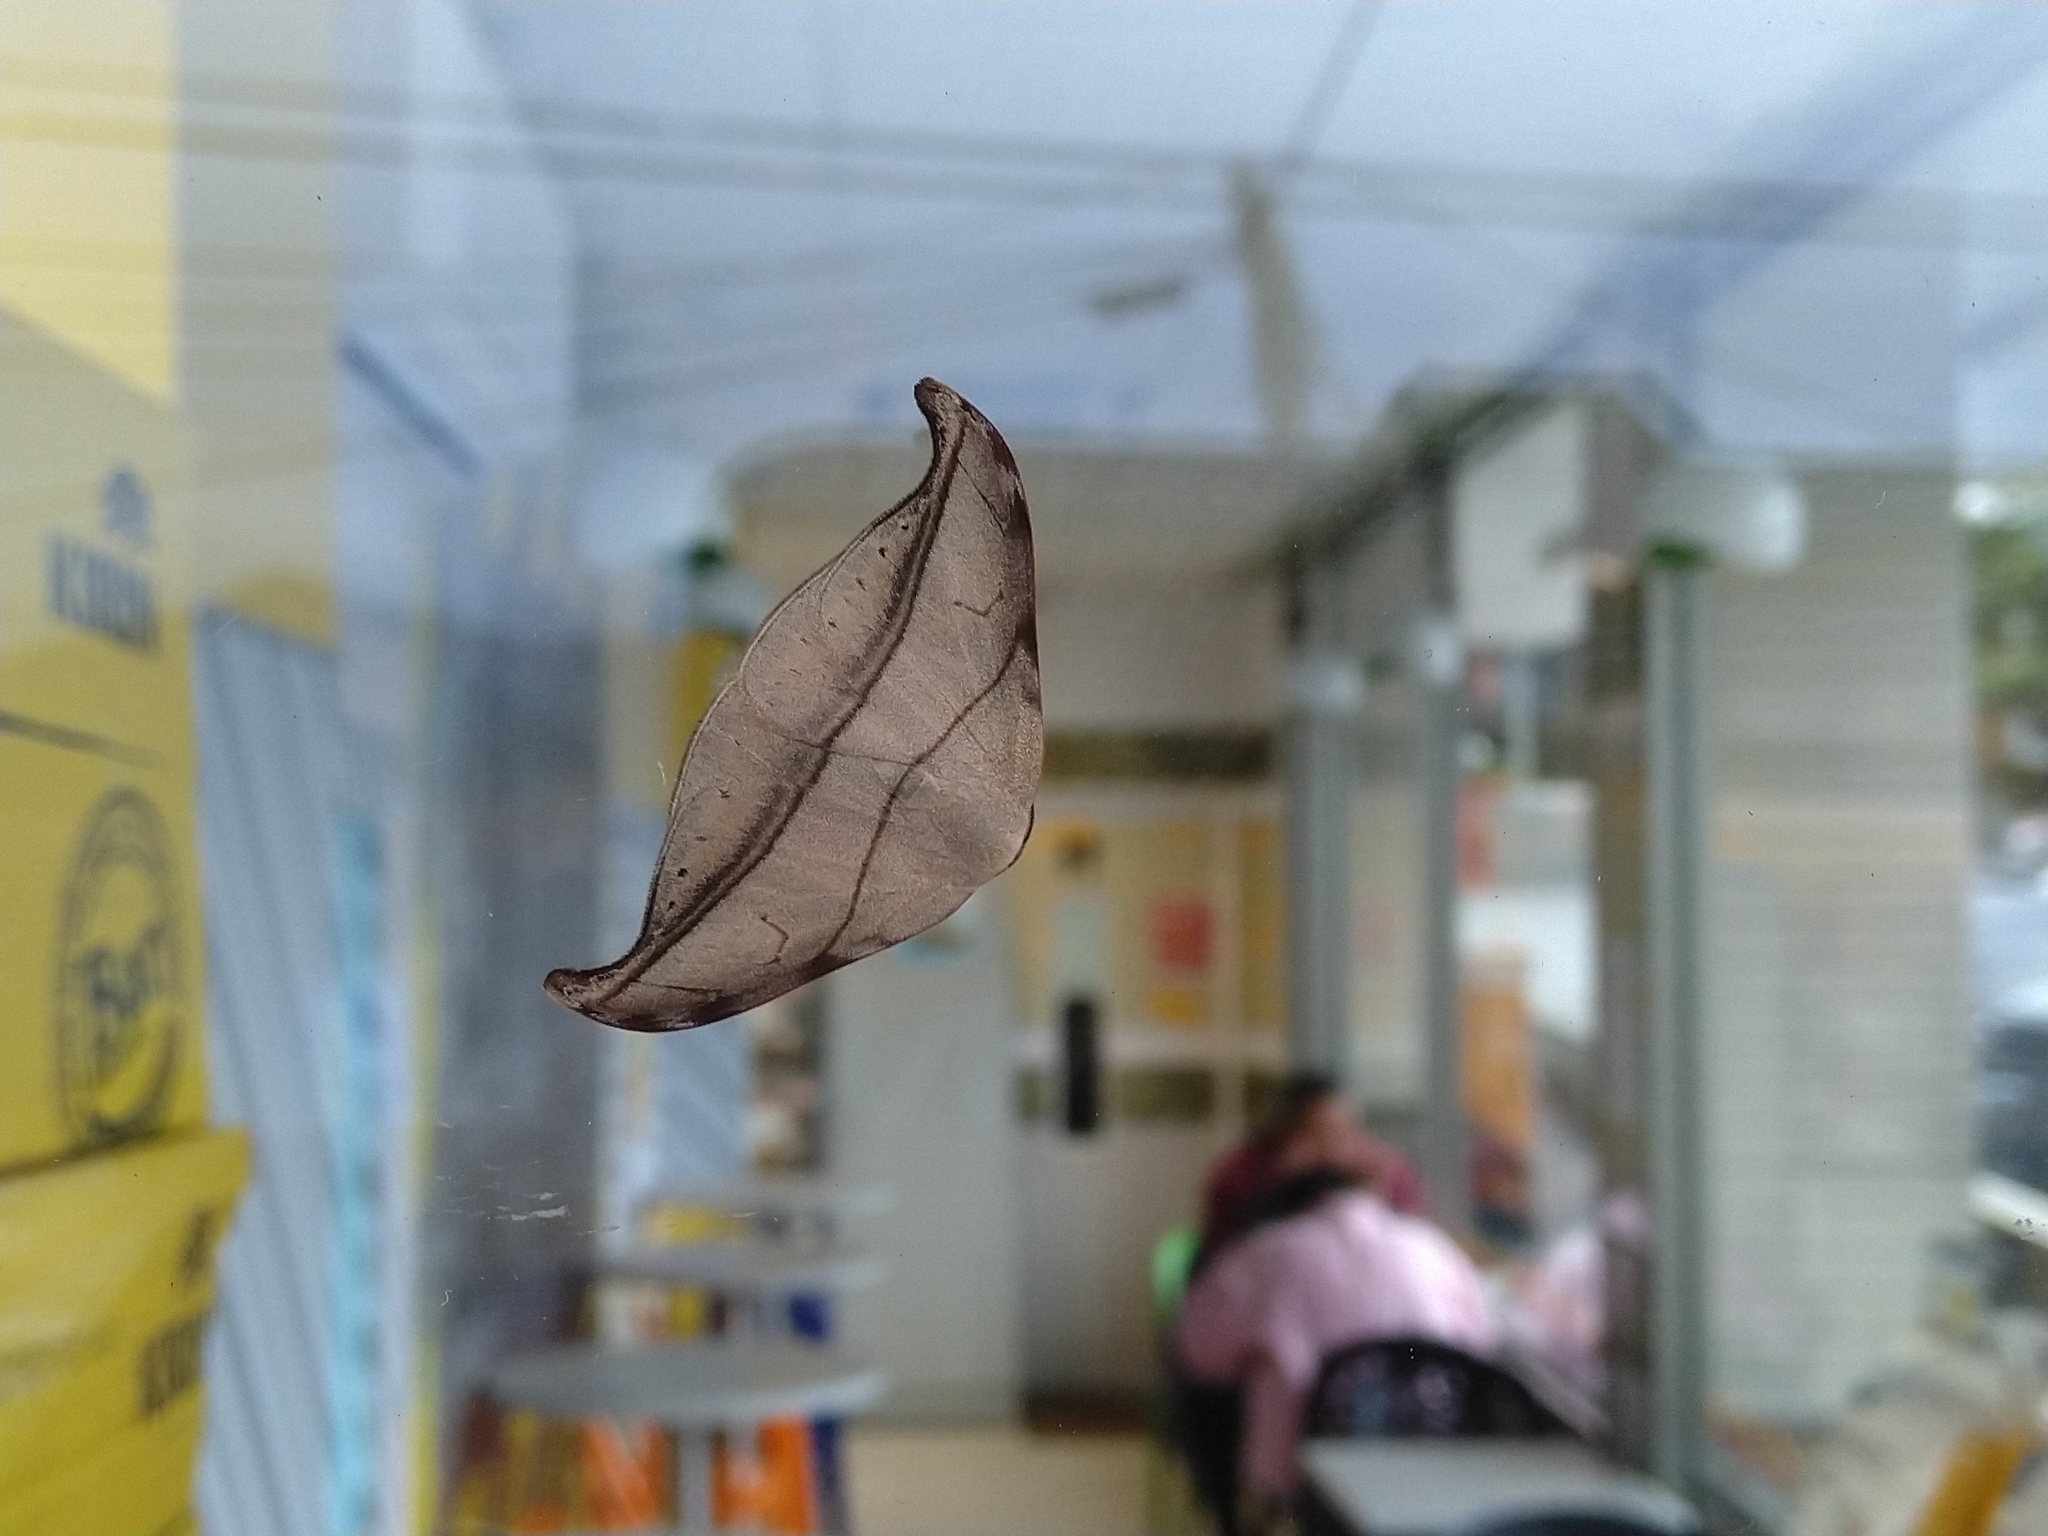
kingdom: Animalia
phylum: Arthropoda
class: Insecta
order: Lepidoptera
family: Drepanidae
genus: Nordstromia
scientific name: Nordstromia semililacina
